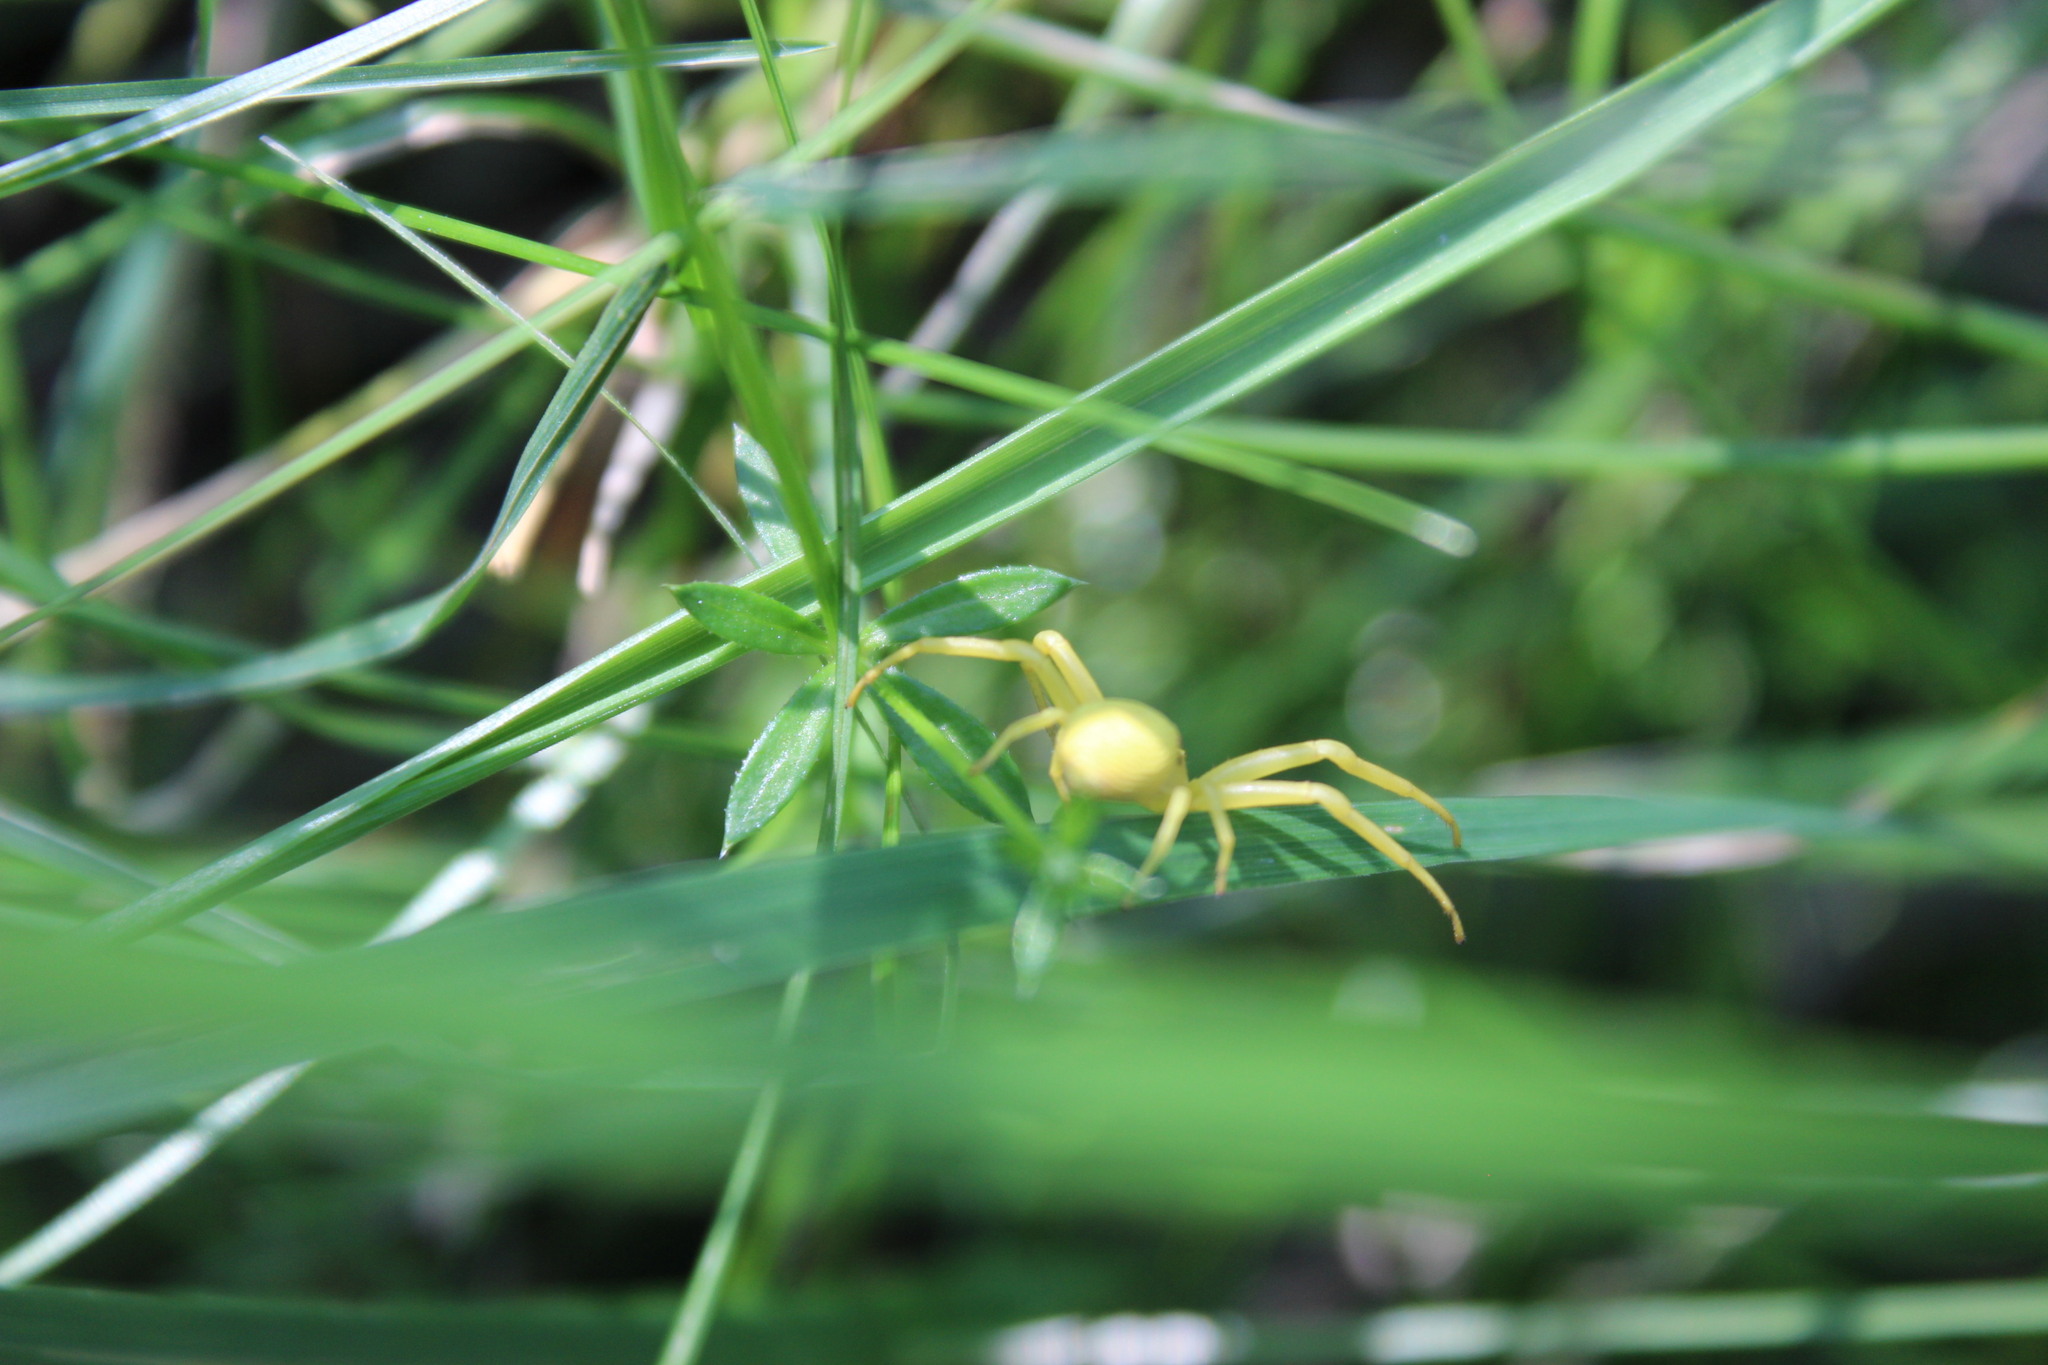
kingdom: Animalia
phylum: Arthropoda
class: Arachnida
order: Araneae
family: Thomisidae
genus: Misumena
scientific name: Misumena vatia
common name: Goldenrod crab spider
